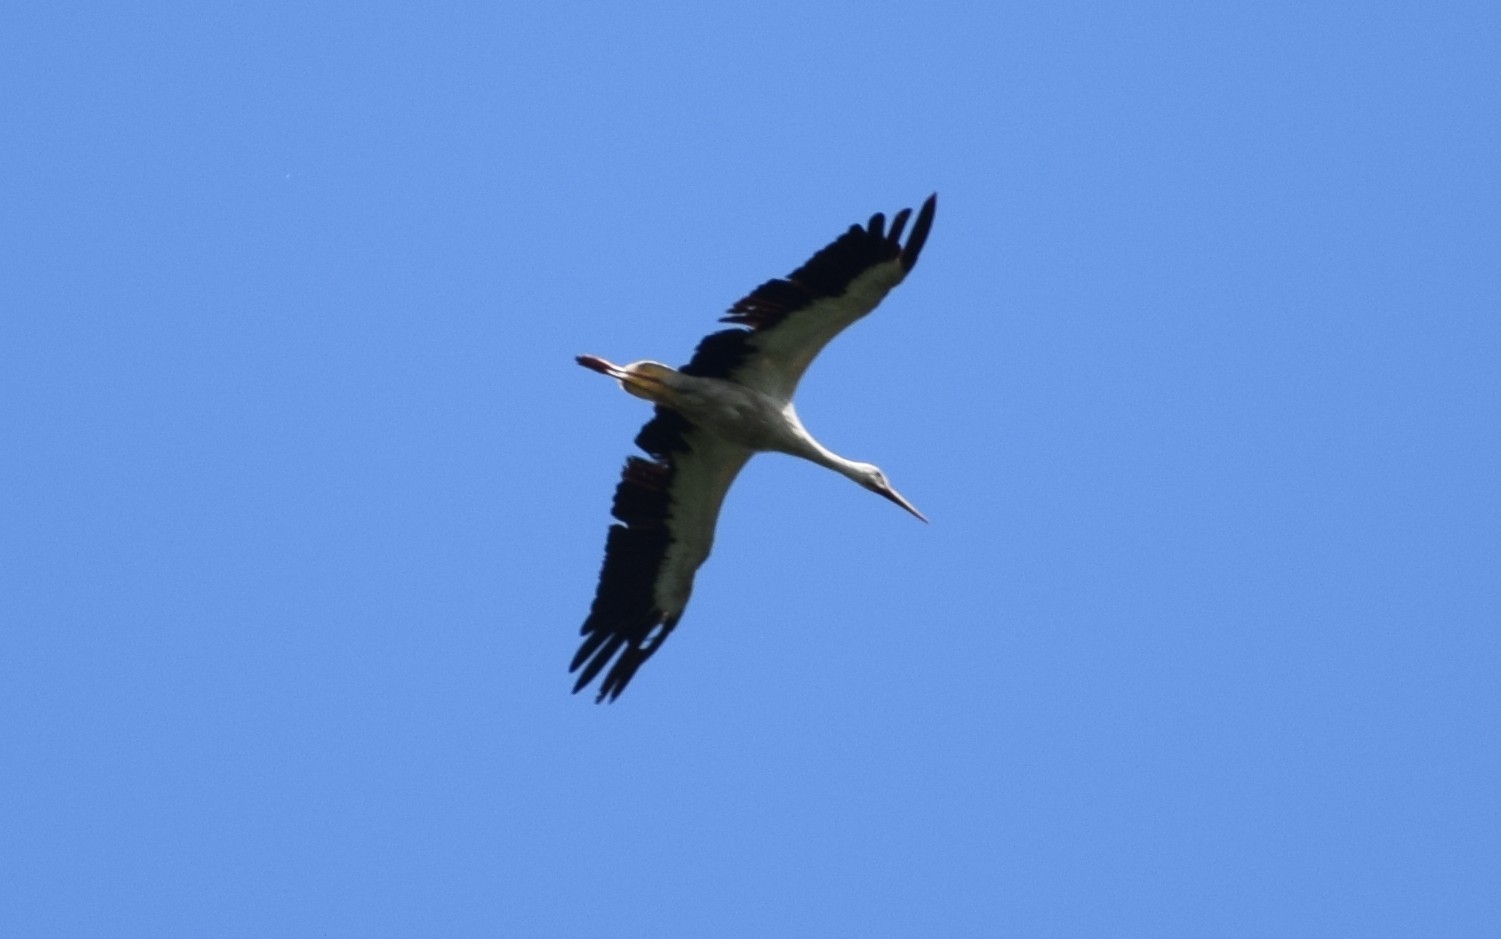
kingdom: Animalia
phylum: Chordata
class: Aves
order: Ciconiiformes
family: Ciconiidae
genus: Ciconia
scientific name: Ciconia ciconia
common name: White stork
